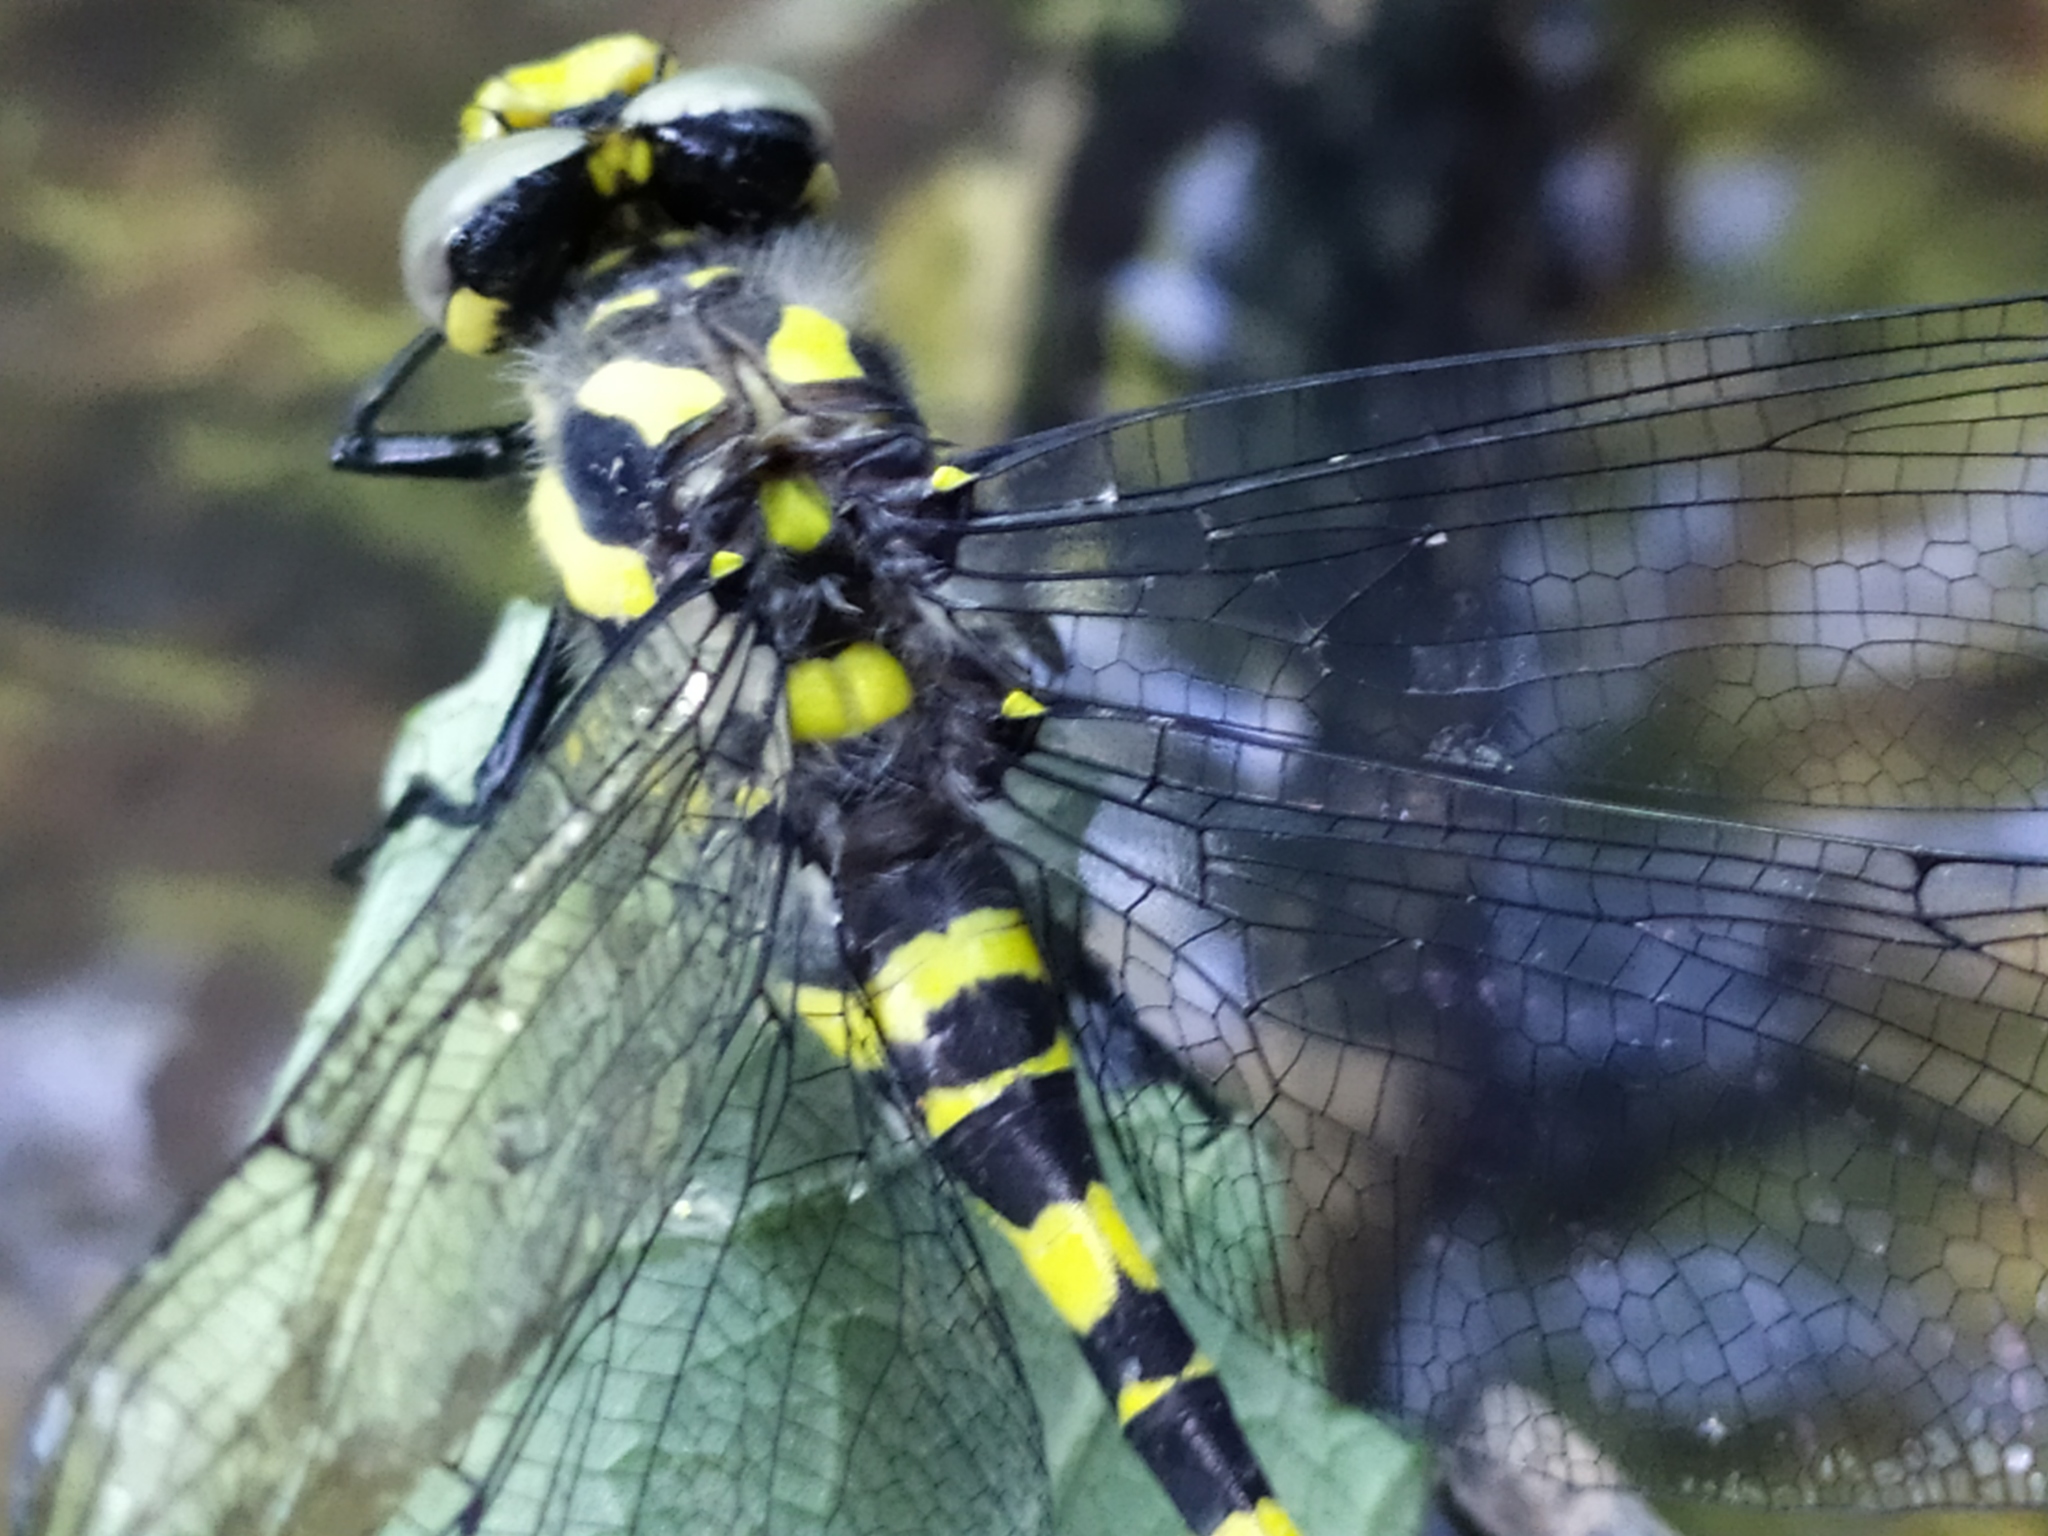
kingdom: Animalia
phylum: Arthropoda
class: Insecta
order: Odonata
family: Cordulegastridae
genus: Cordulegaster
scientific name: Cordulegaster bidentata
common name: Sombre goldenring
